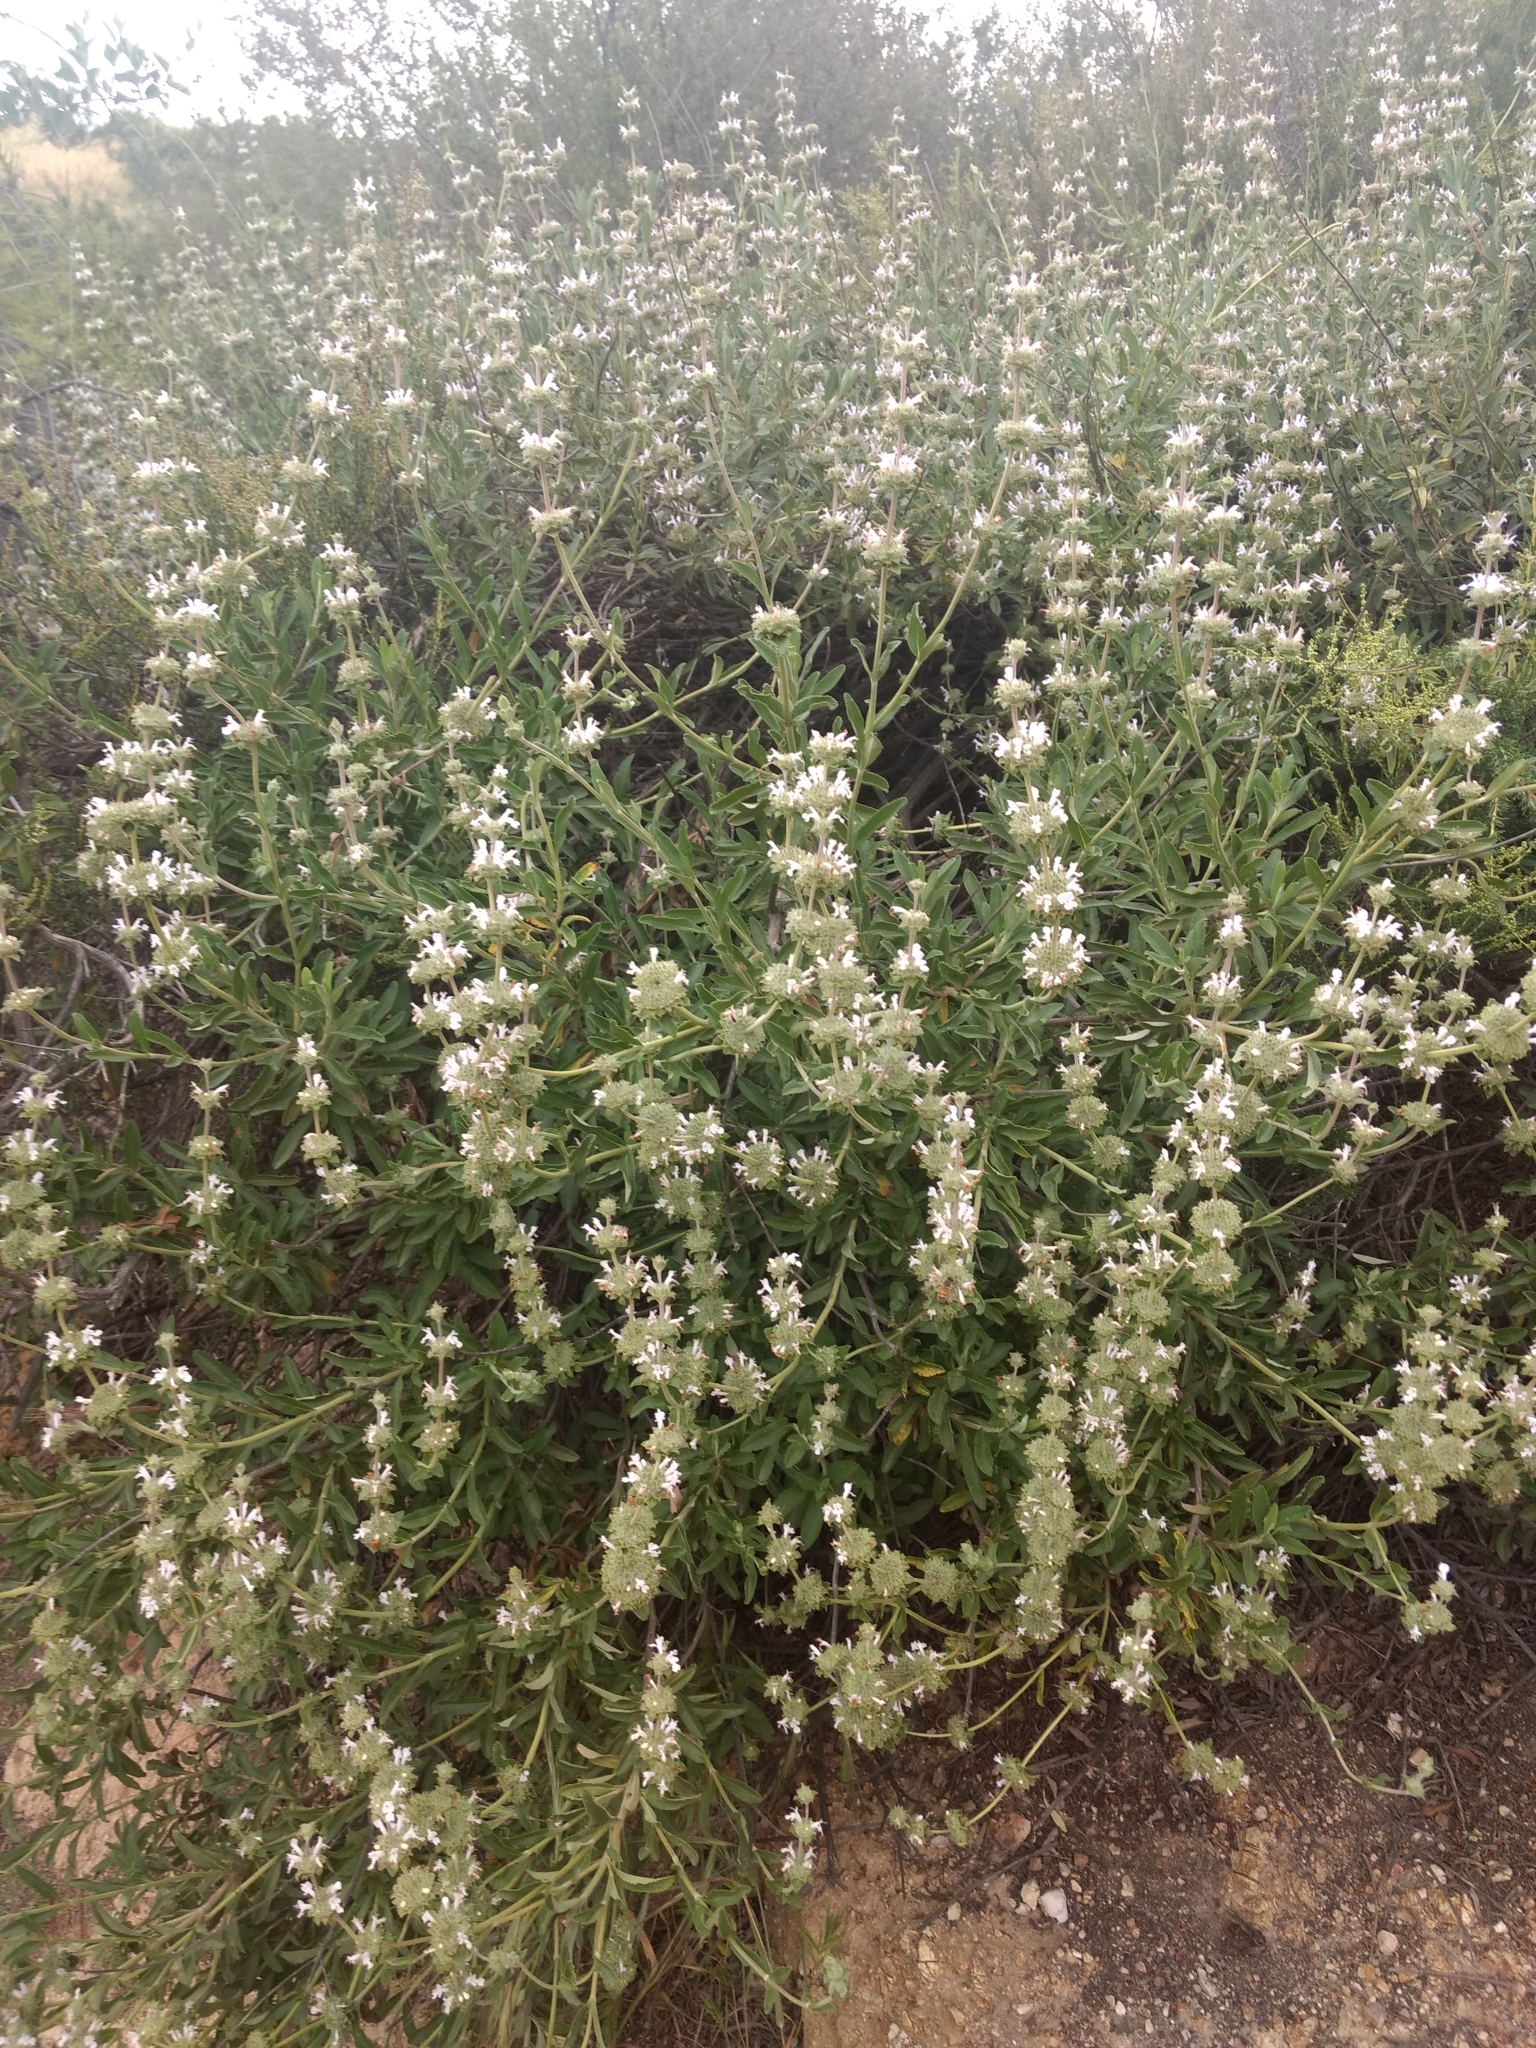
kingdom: Plantae
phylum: Tracheophyta
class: Magnoliopsida
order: Lamiales
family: Lamiaceae
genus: Salvia
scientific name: Salvia mellifera
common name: Black sage
